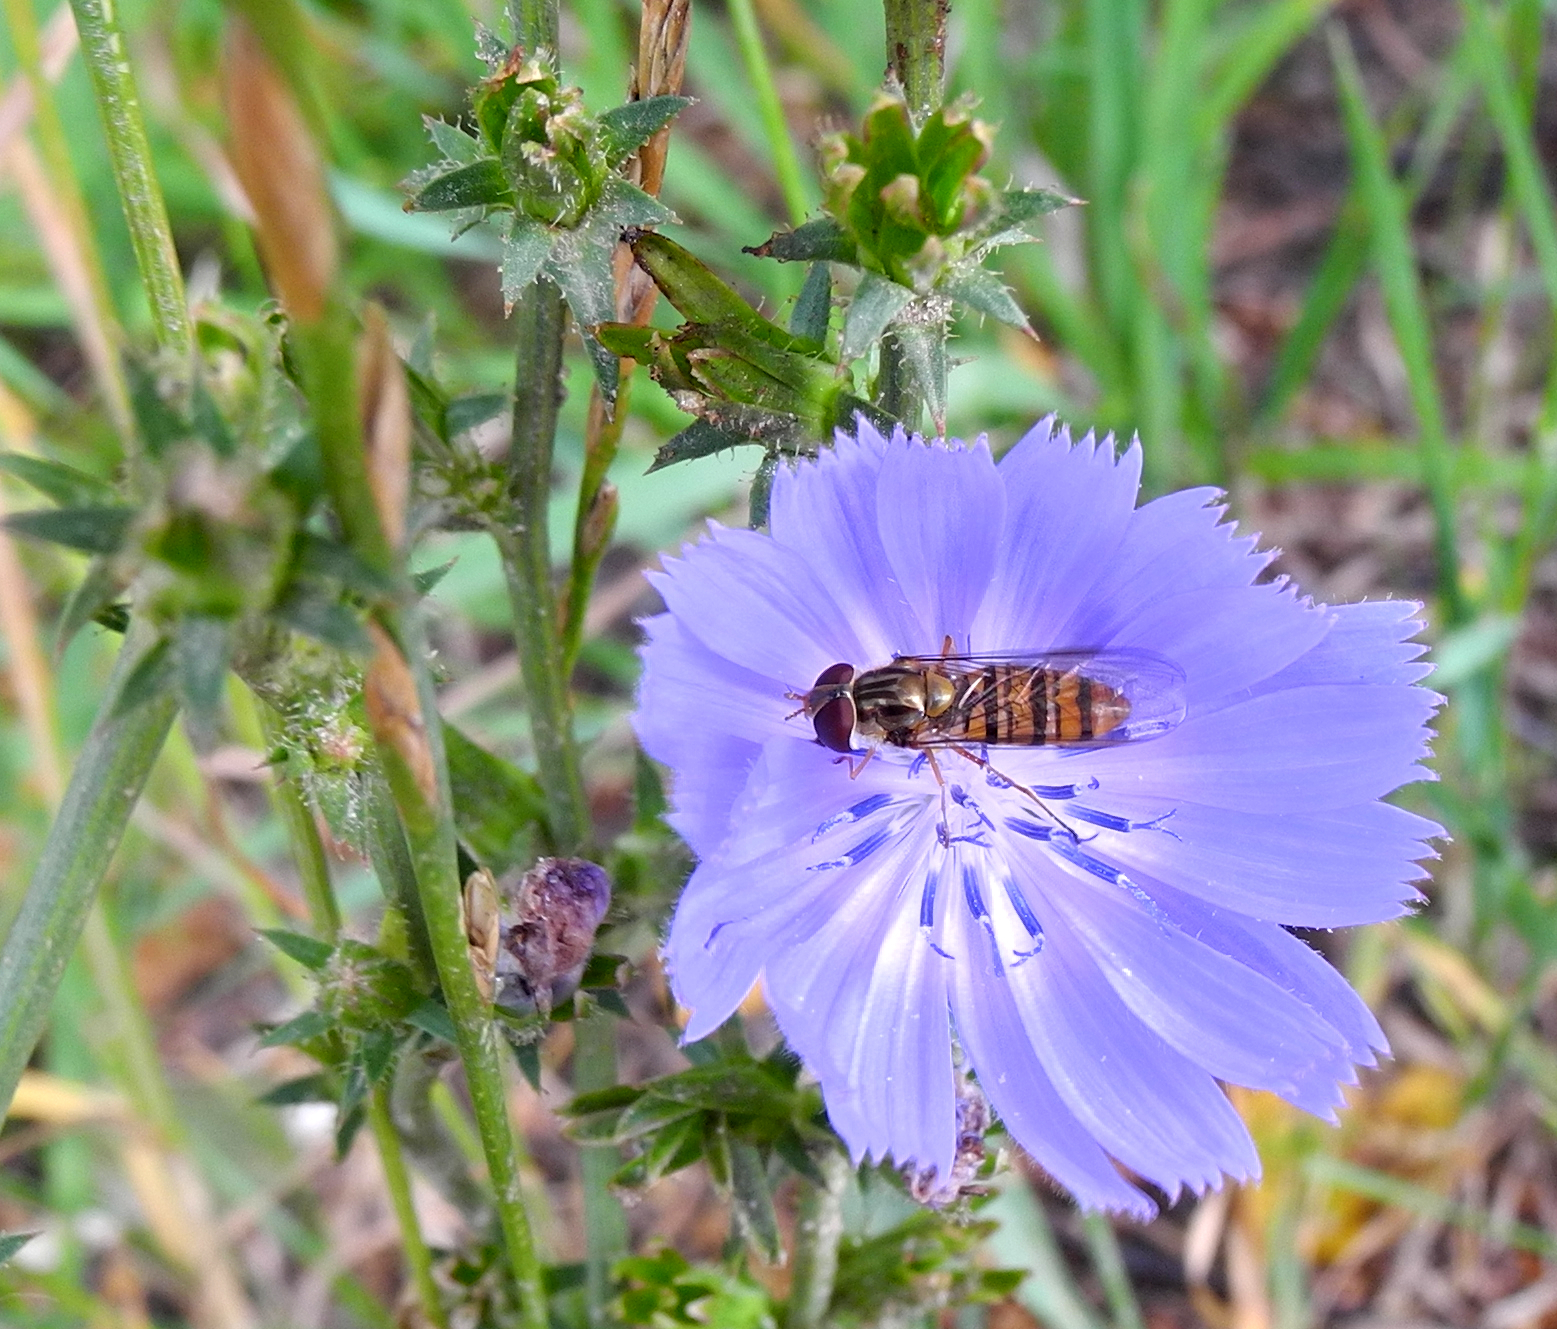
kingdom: Animalia
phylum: Arthropoda
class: Insecta
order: Diptera
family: Syrphidae
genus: Episyrphus
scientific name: Episyrphus balteatus
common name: Marmalade hoverfly
